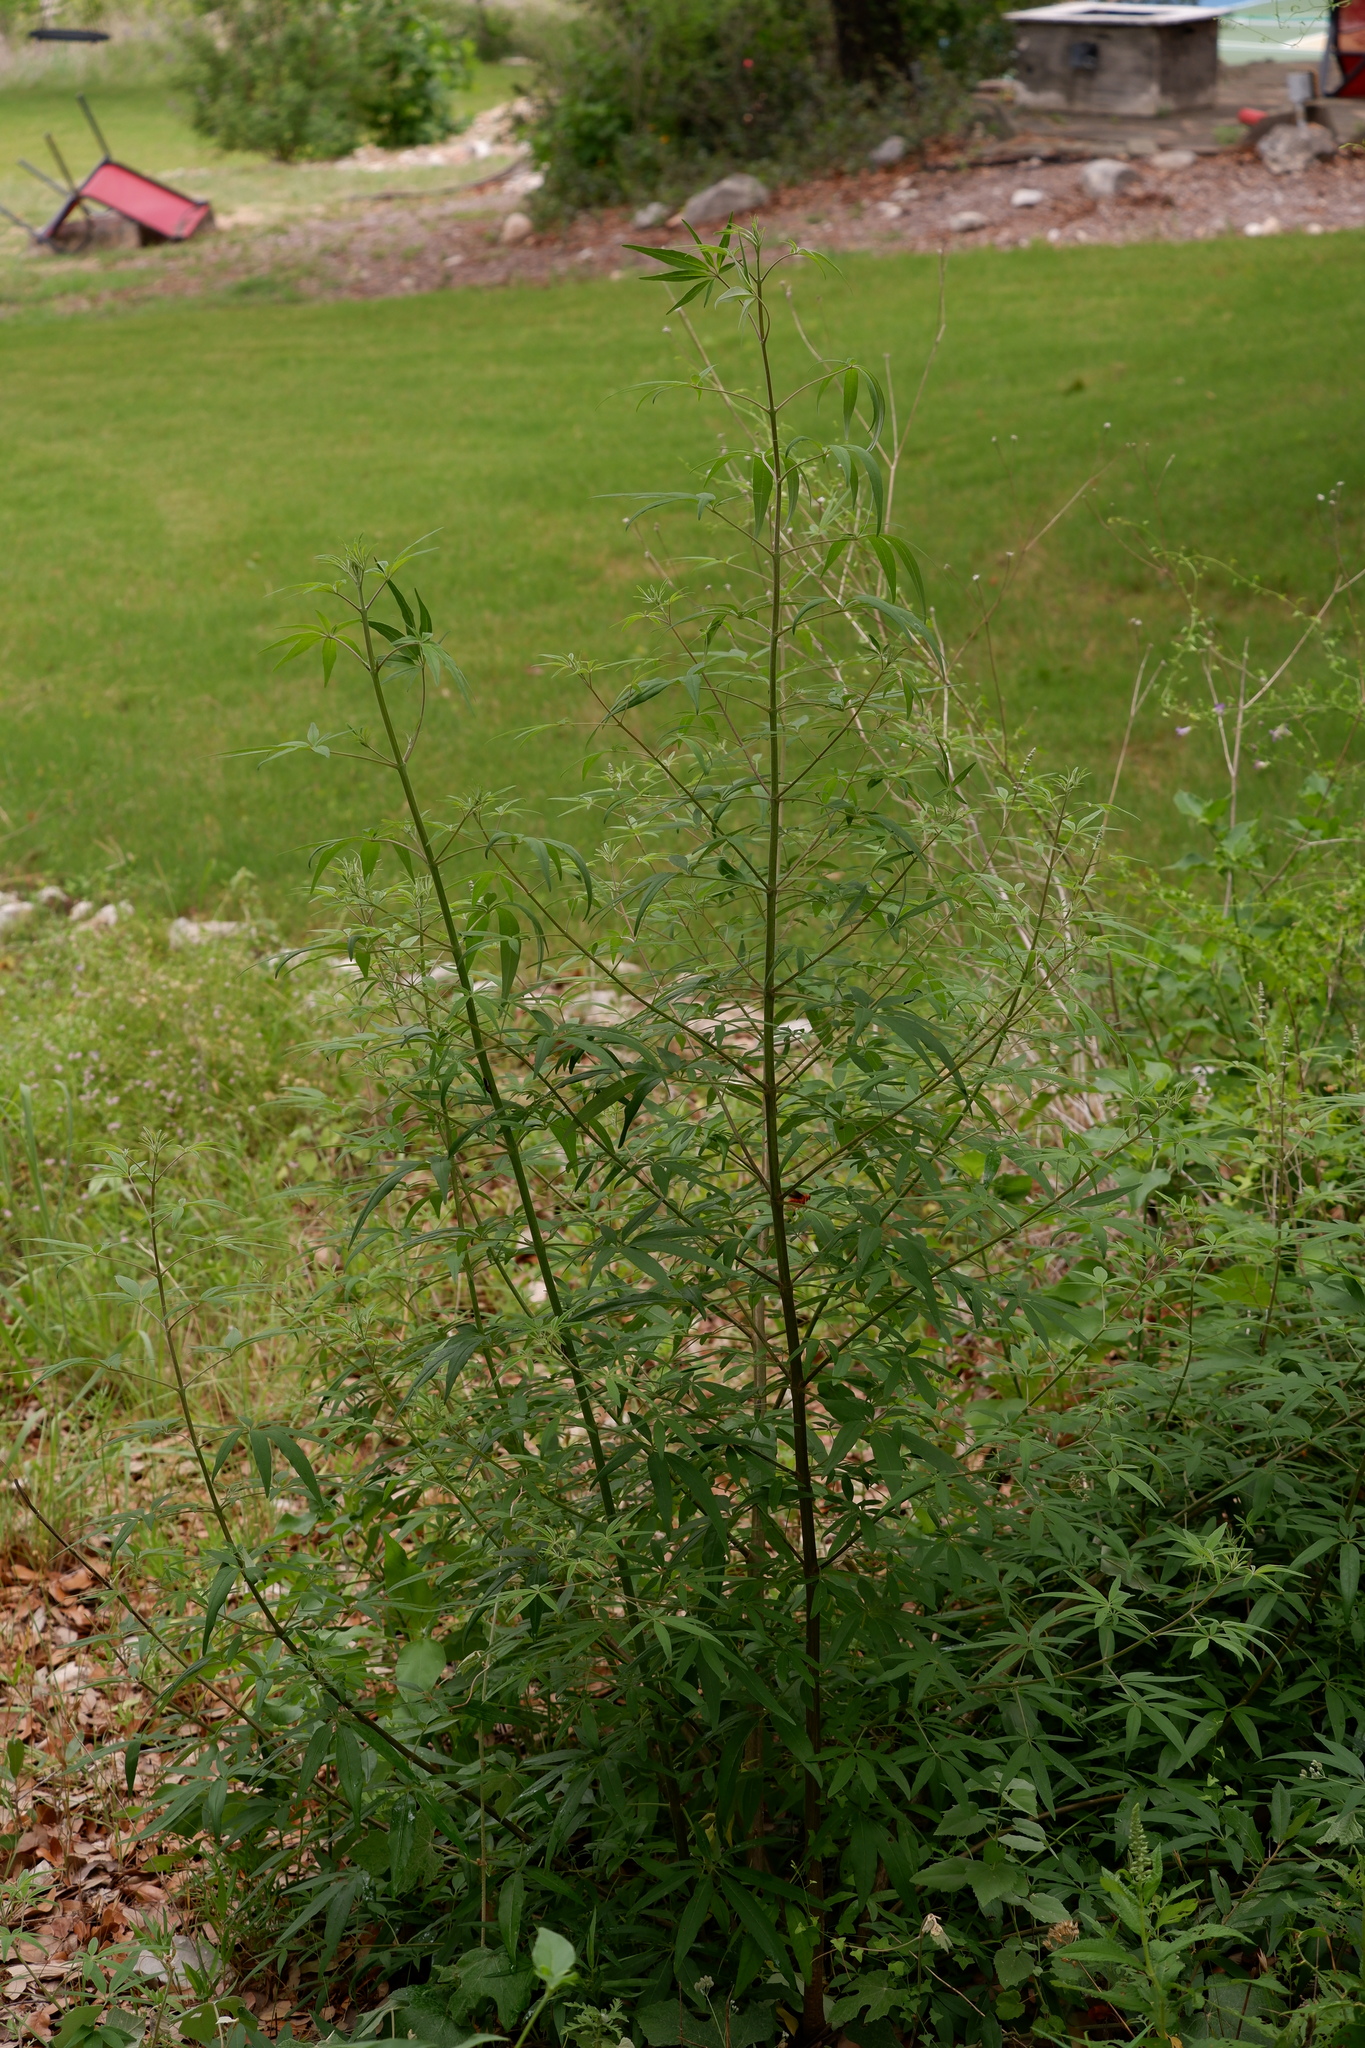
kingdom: Plantae
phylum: Tracheophyta
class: Magnoliopsida
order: Lamiales
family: Lamiaceae
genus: Vitex
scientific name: Vitex agnus-castus
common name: Chasteberry
